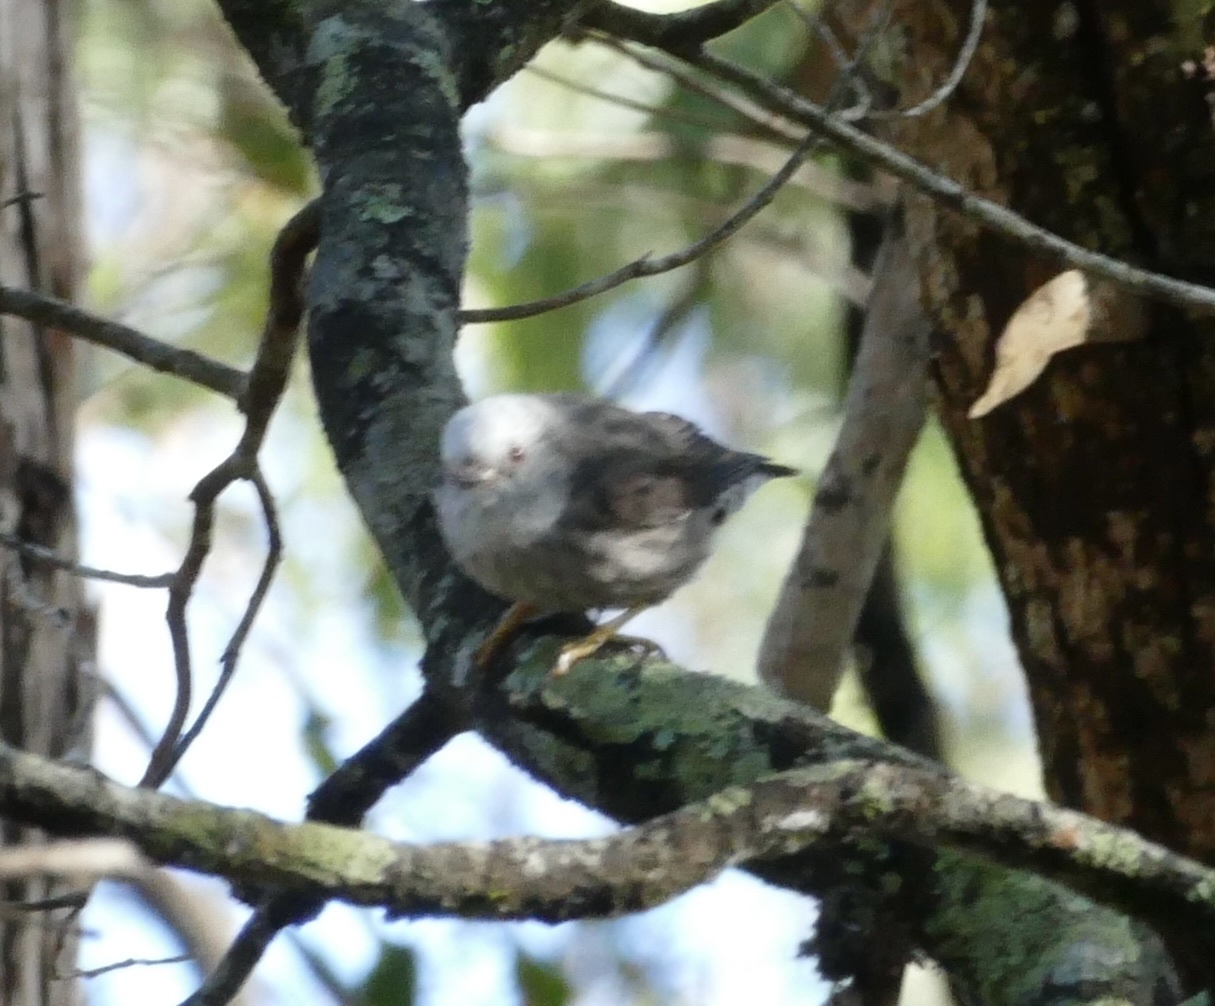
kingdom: Animalia
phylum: Chordata
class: Aves
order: Passeriformes
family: Neosittidae
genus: Daphoenositta
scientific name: Daphoenositta chrysoptera
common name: Varied sittella
